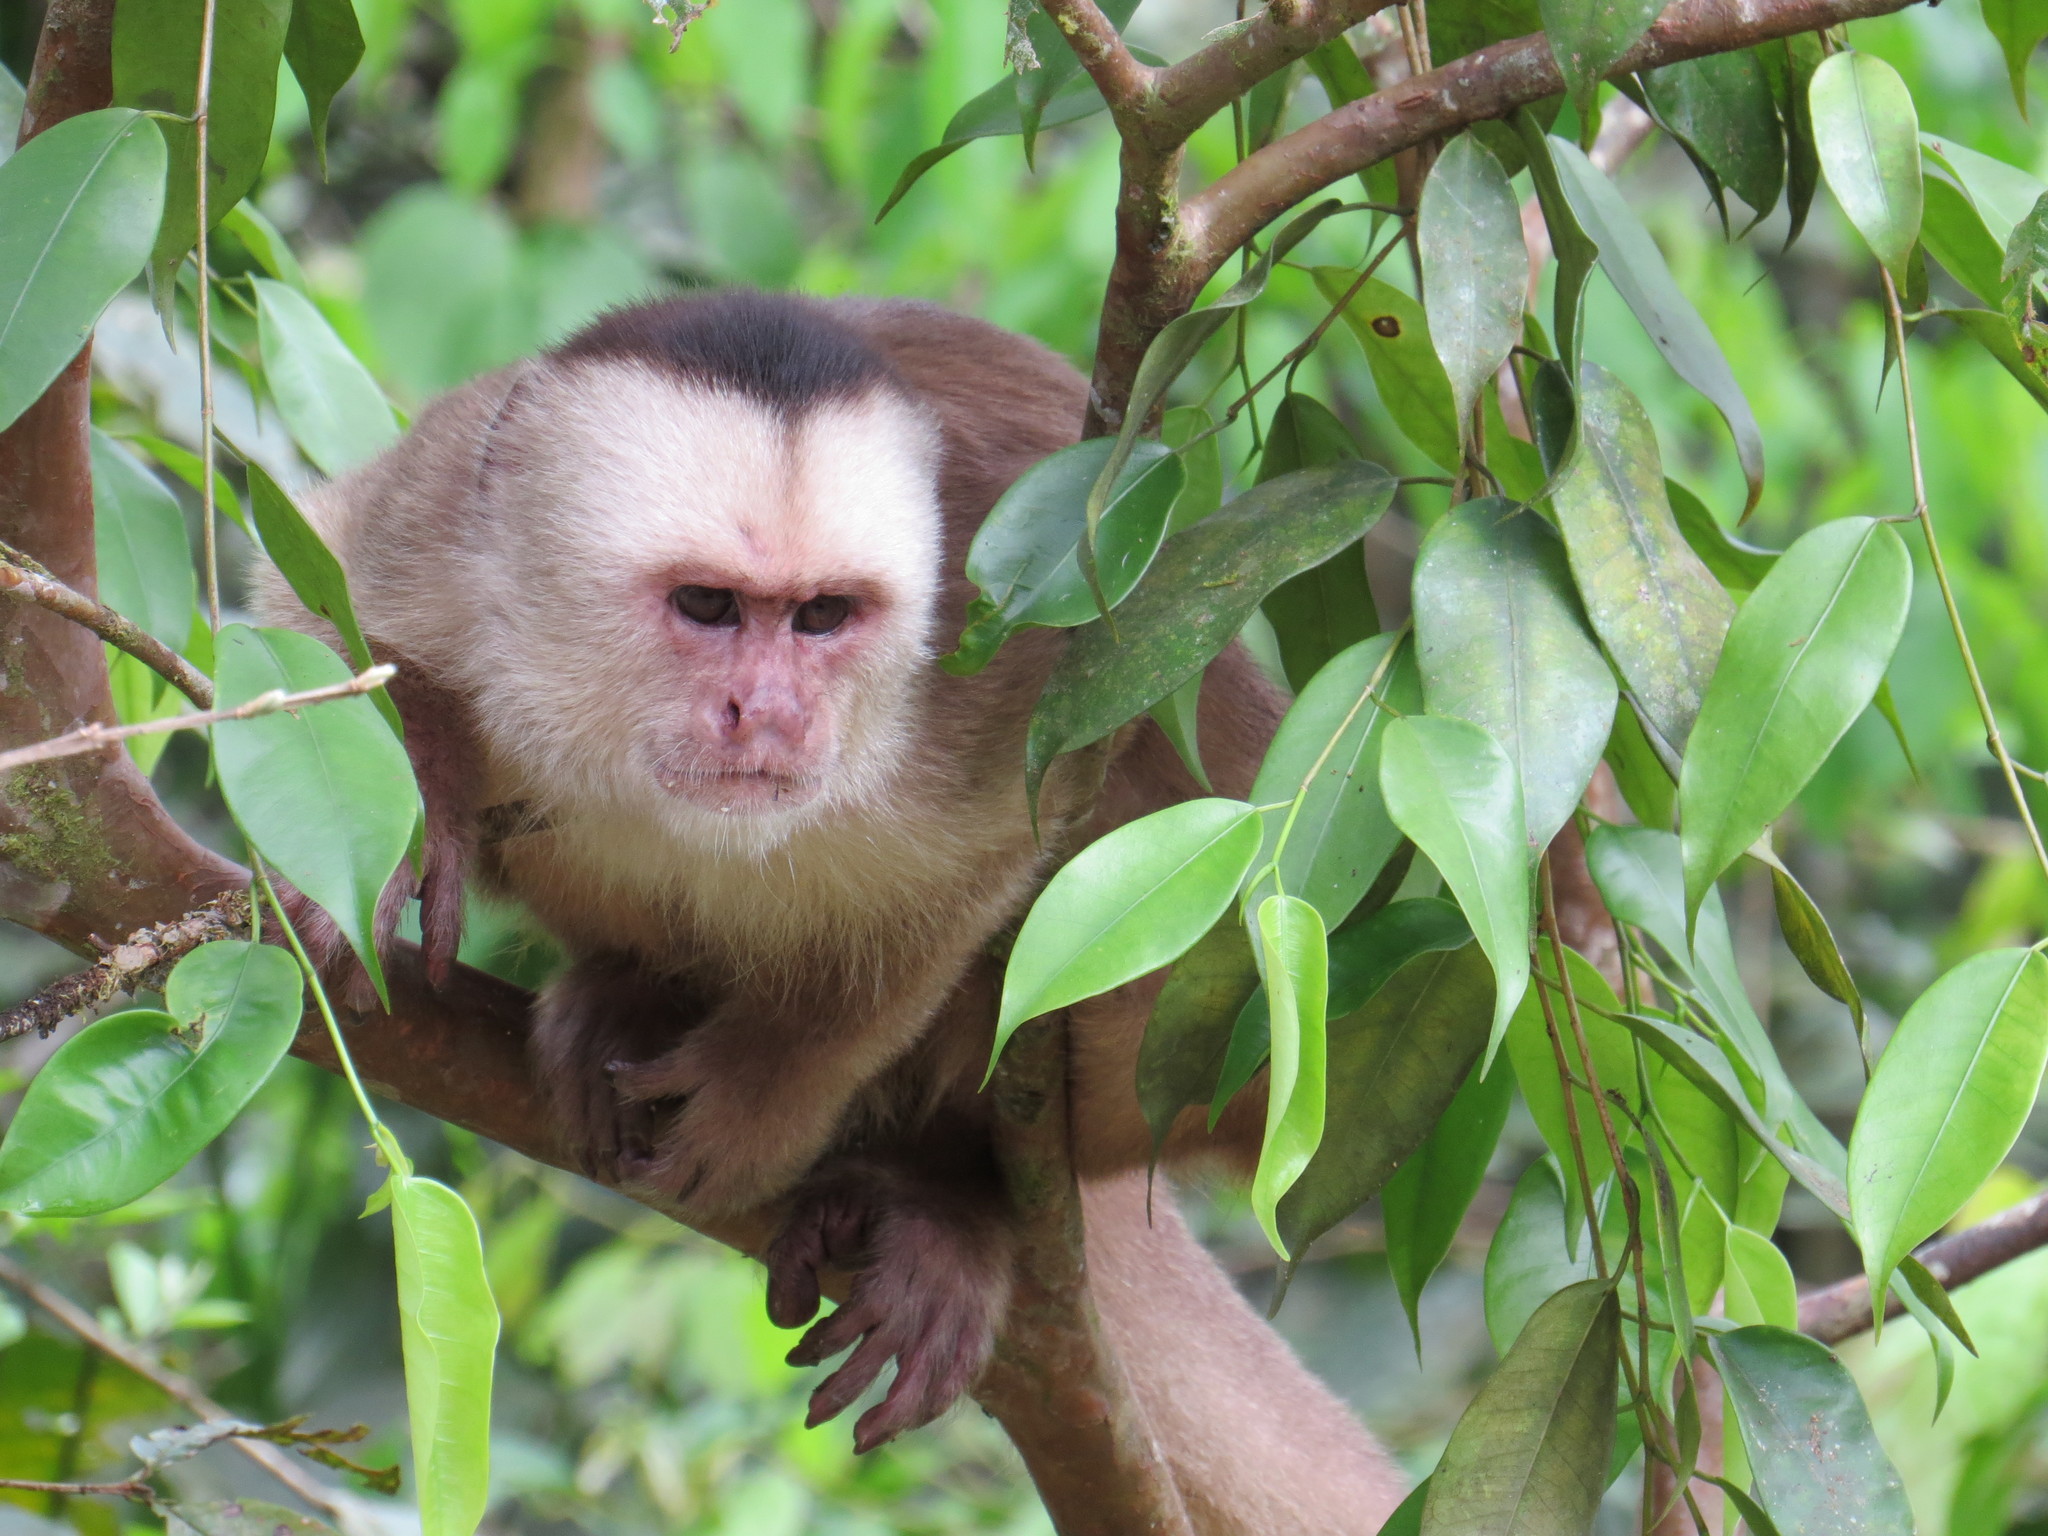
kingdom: Animalia
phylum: Chordata
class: Mammalia
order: Primates
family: Cebidae
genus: Cebus
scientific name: Cebus yuracus
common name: Peruvian white-fronted capuchin
